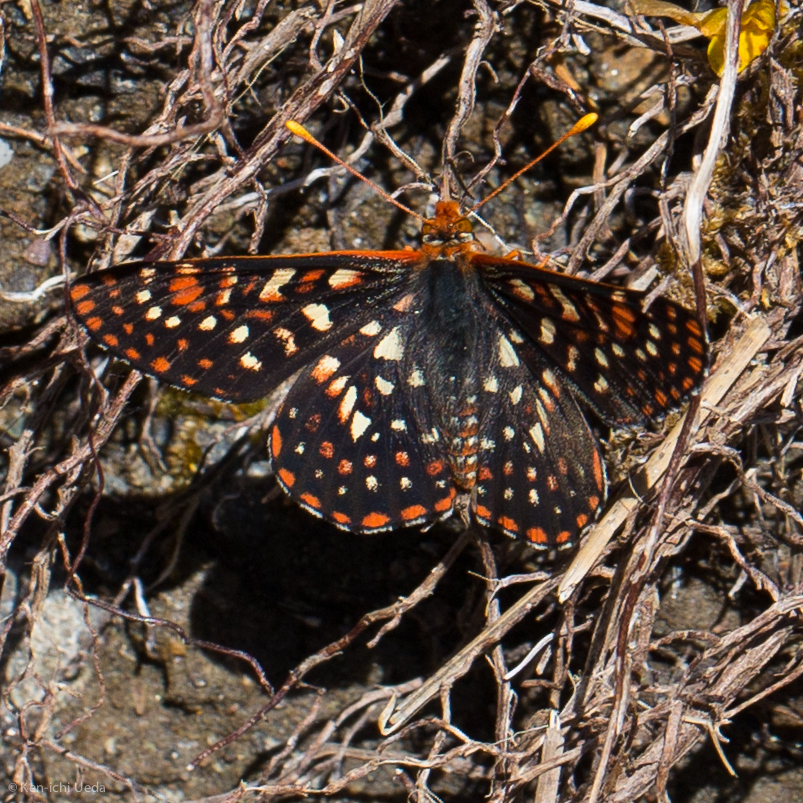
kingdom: Animalia
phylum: Arthropoda
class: Insecta
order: Lepidoptera
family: Nymphalidae
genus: Occidryas
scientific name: Occidryas chalcedona
